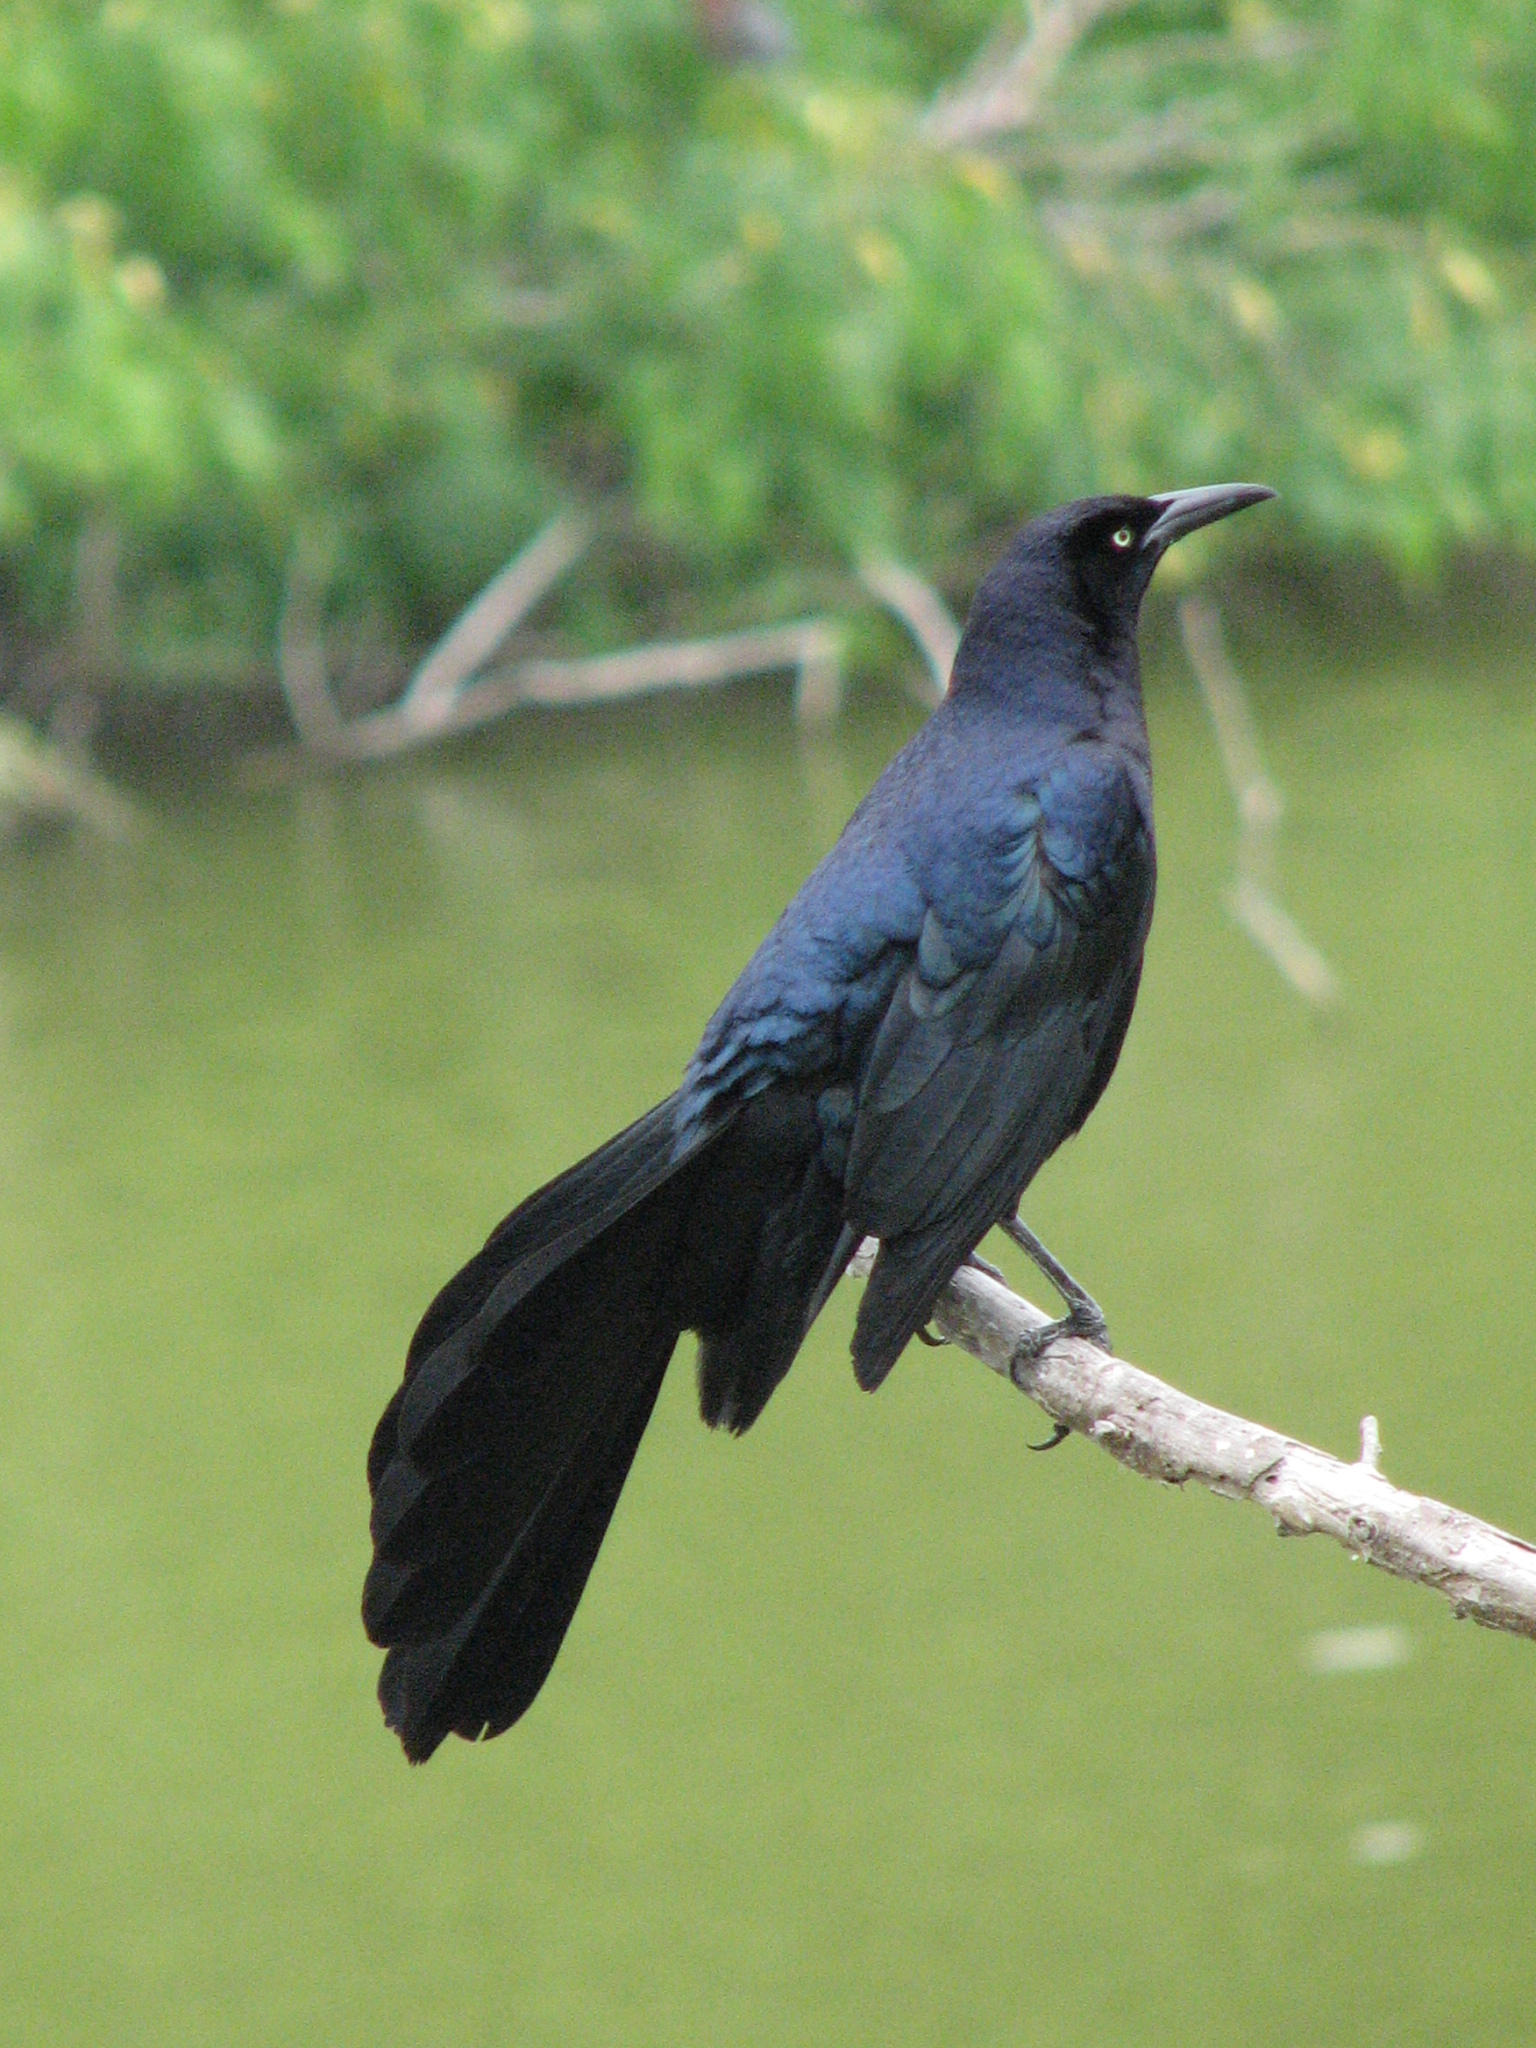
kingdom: Animalia
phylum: Chordata
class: Aves
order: Passeriformes
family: Icteridae
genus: Quiscalus
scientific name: Quiscalus mexicanus
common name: Great-tailed grackle
